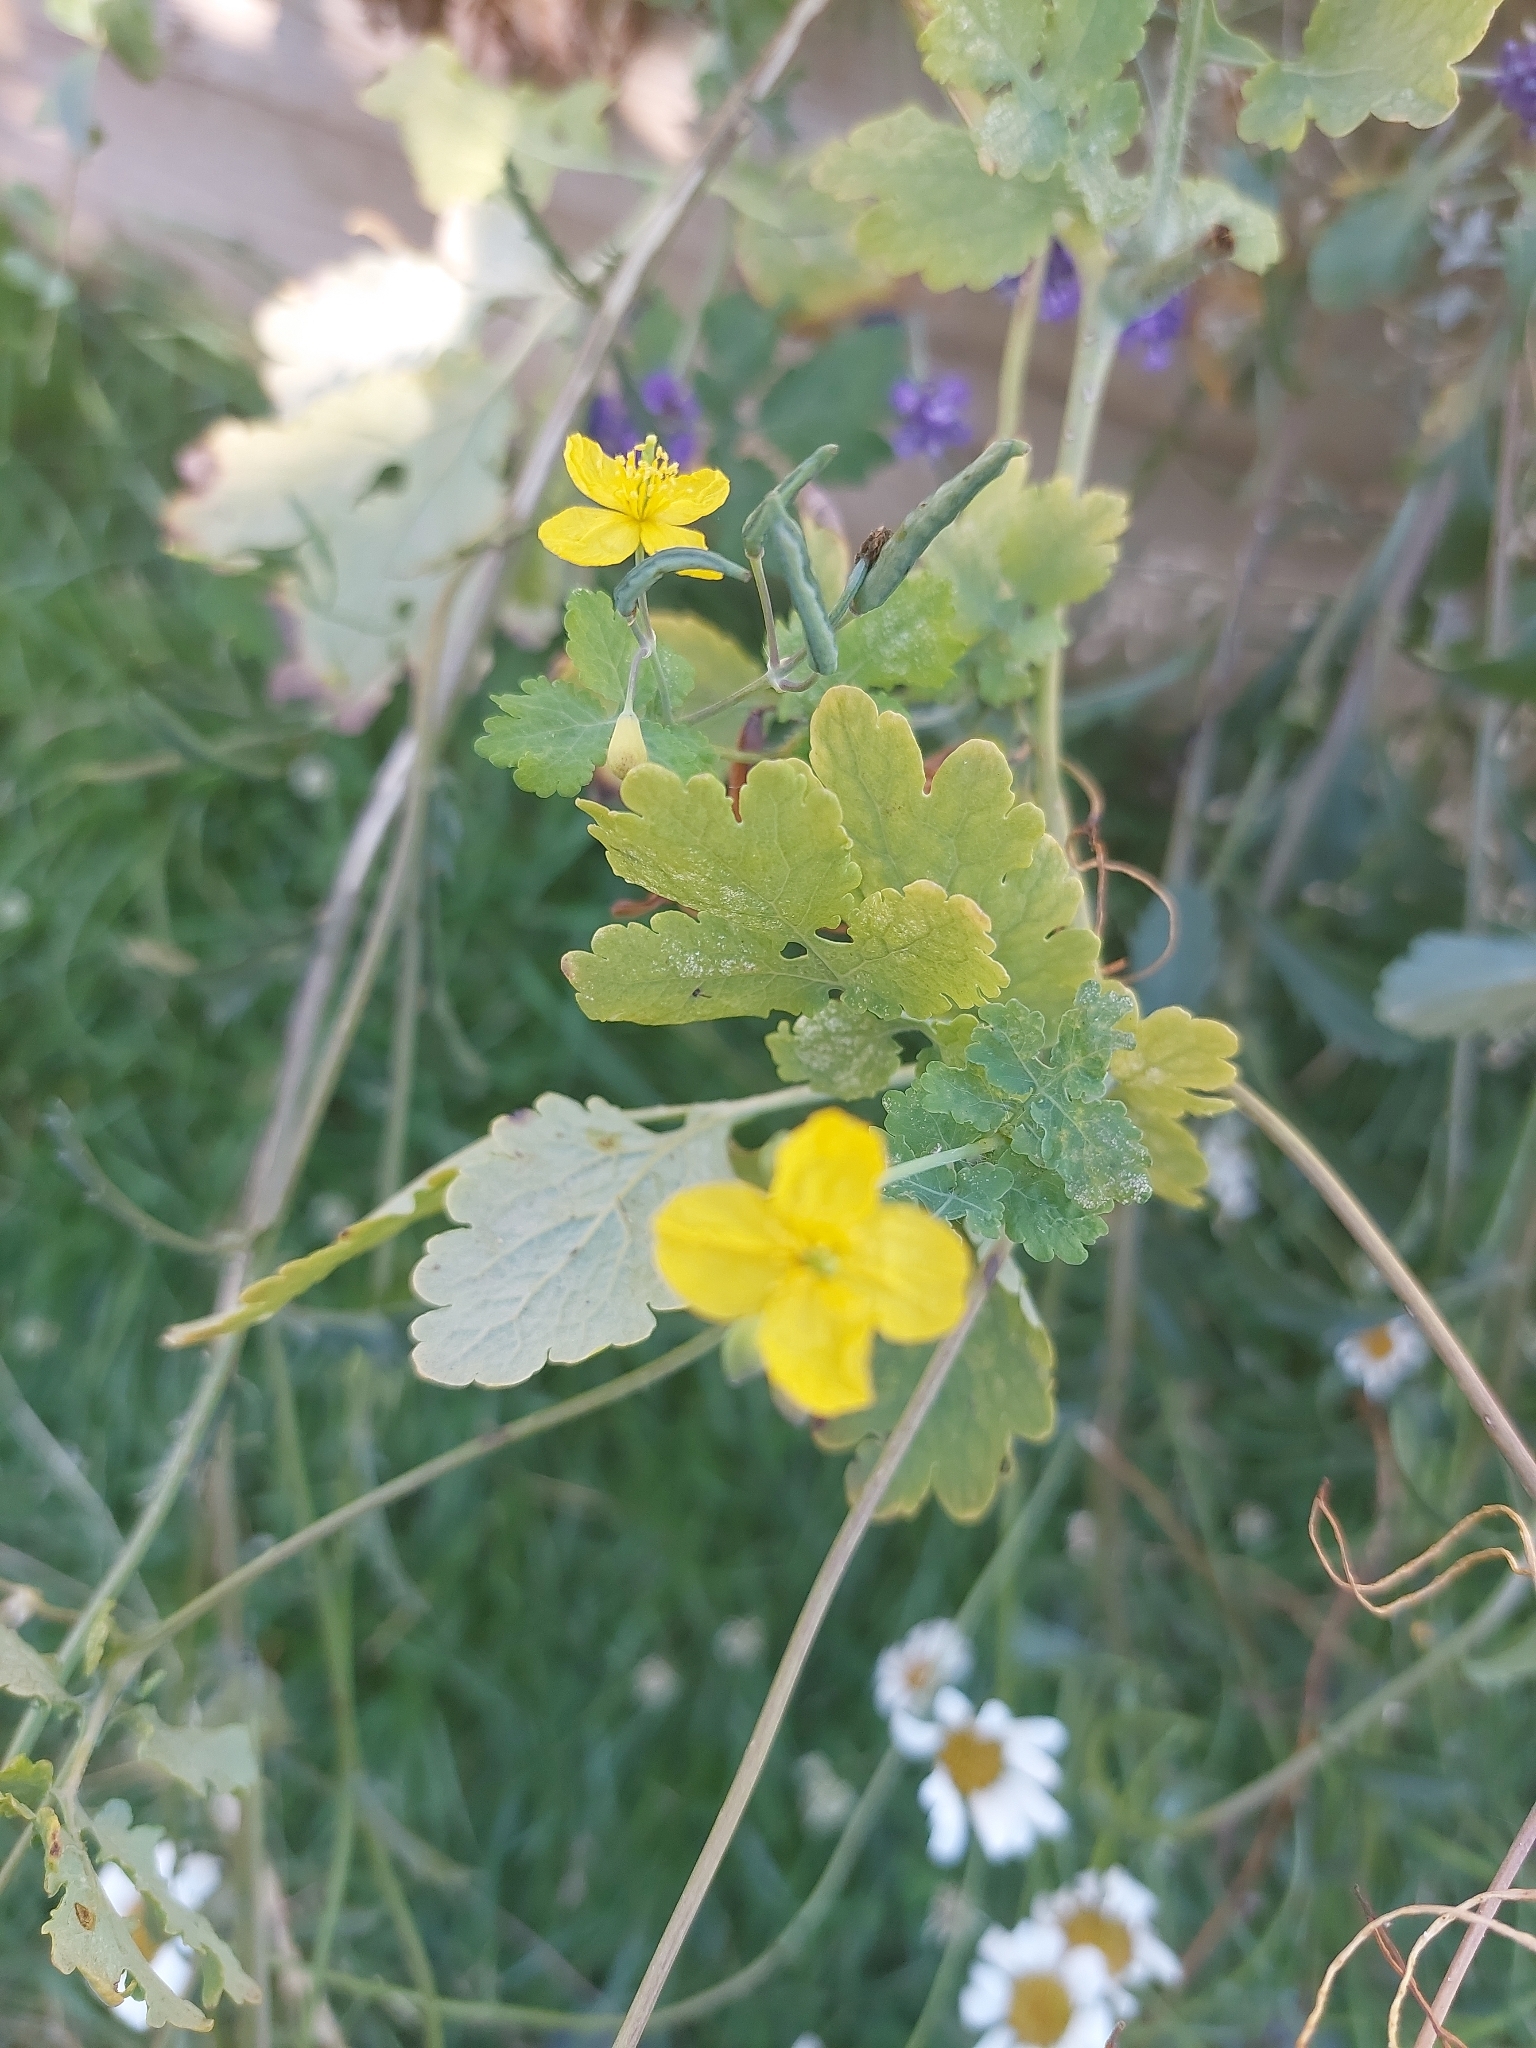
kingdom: Plantae
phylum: Tracheophyta
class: Magnoliopsida
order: Ranunculales
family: Papaveraceae
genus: Chelidonium
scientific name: Chelidonium majus
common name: Greater celandine
